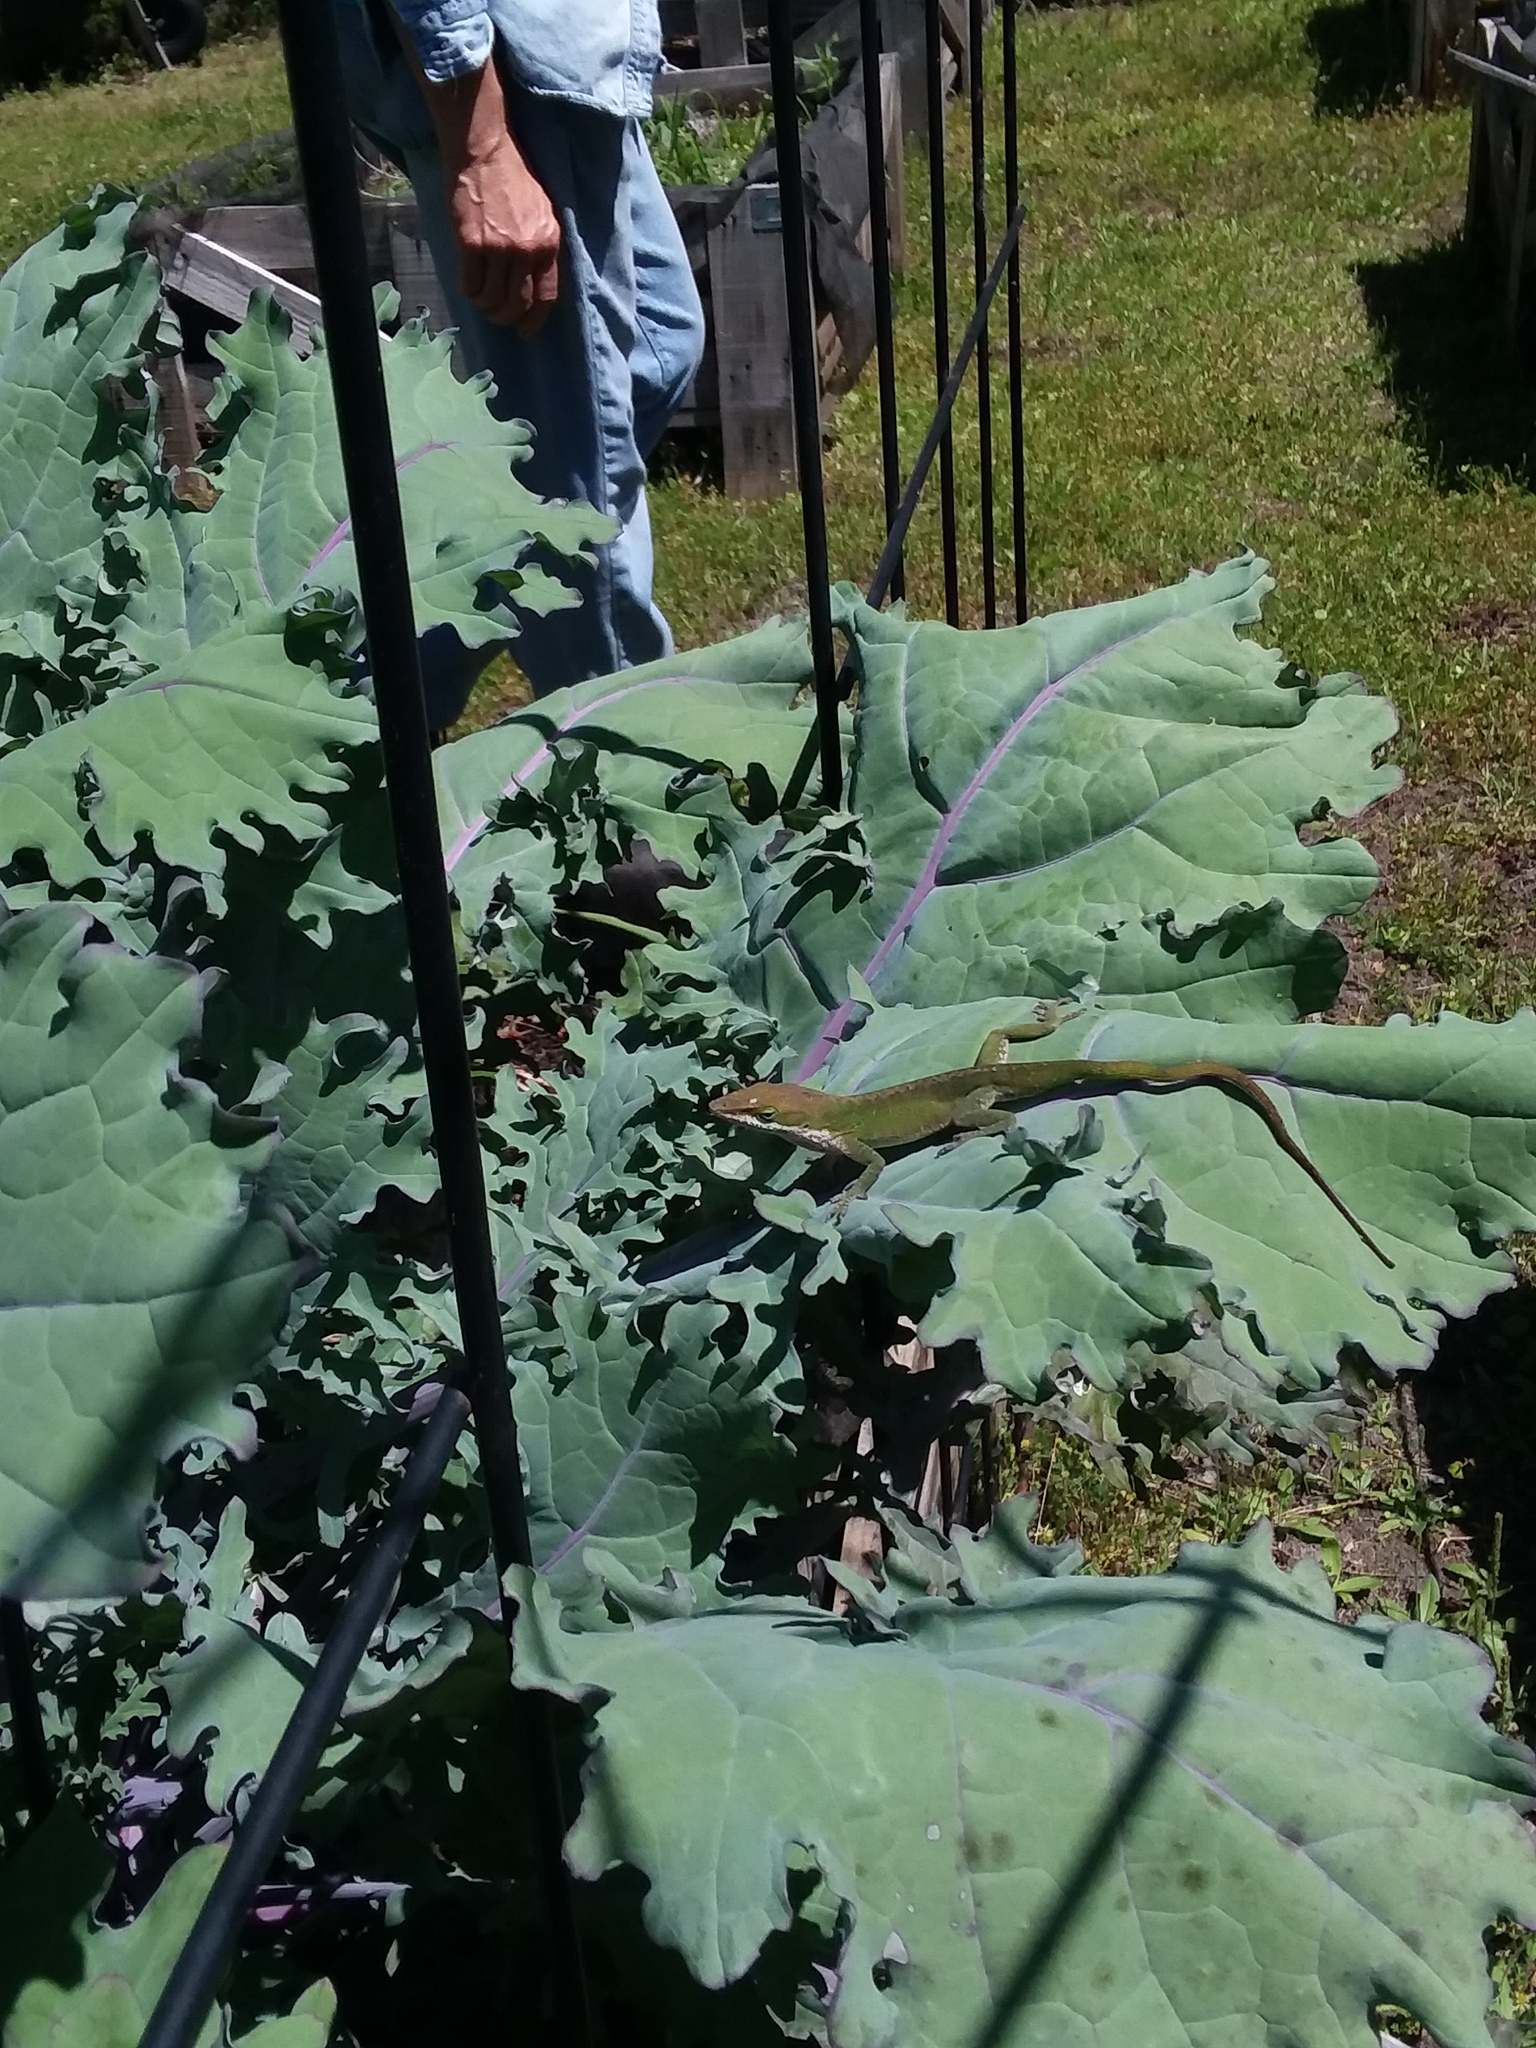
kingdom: Animalia
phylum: Chordata
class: Squamata
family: Dactyloidae
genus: Anolis
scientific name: Anolis carolinensis
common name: Green anole
